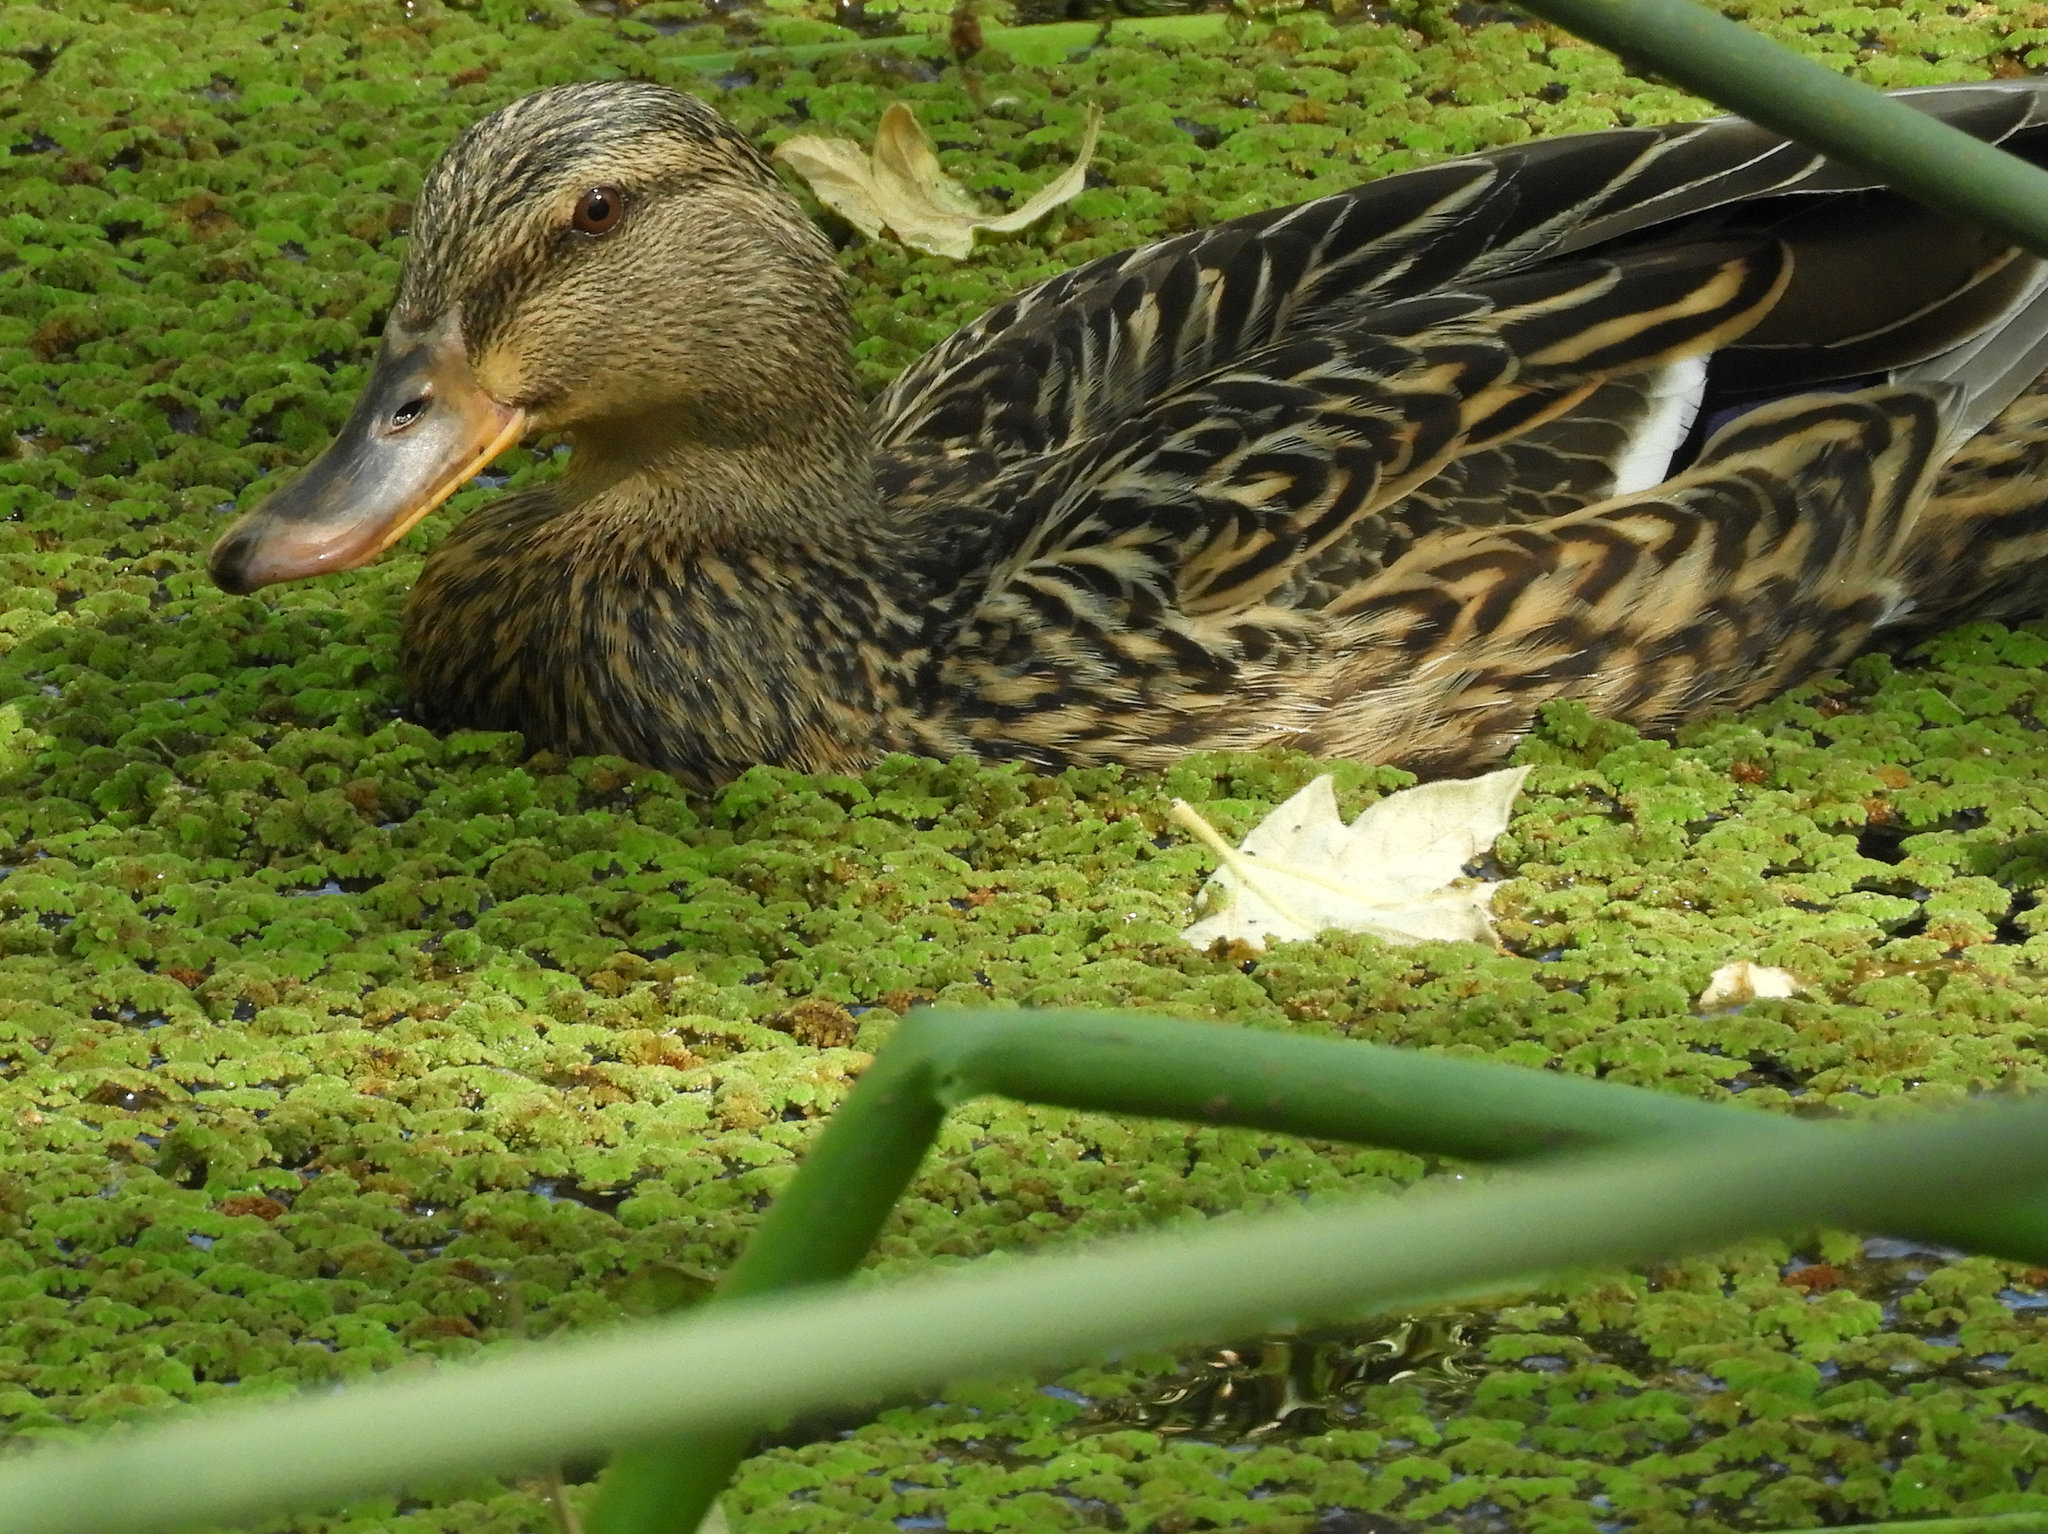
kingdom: Animalia
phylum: Chordata
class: Aves
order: Anseriformes
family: Anatidae
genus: Anas
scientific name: Anas platyrhynchos
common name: Mallard
